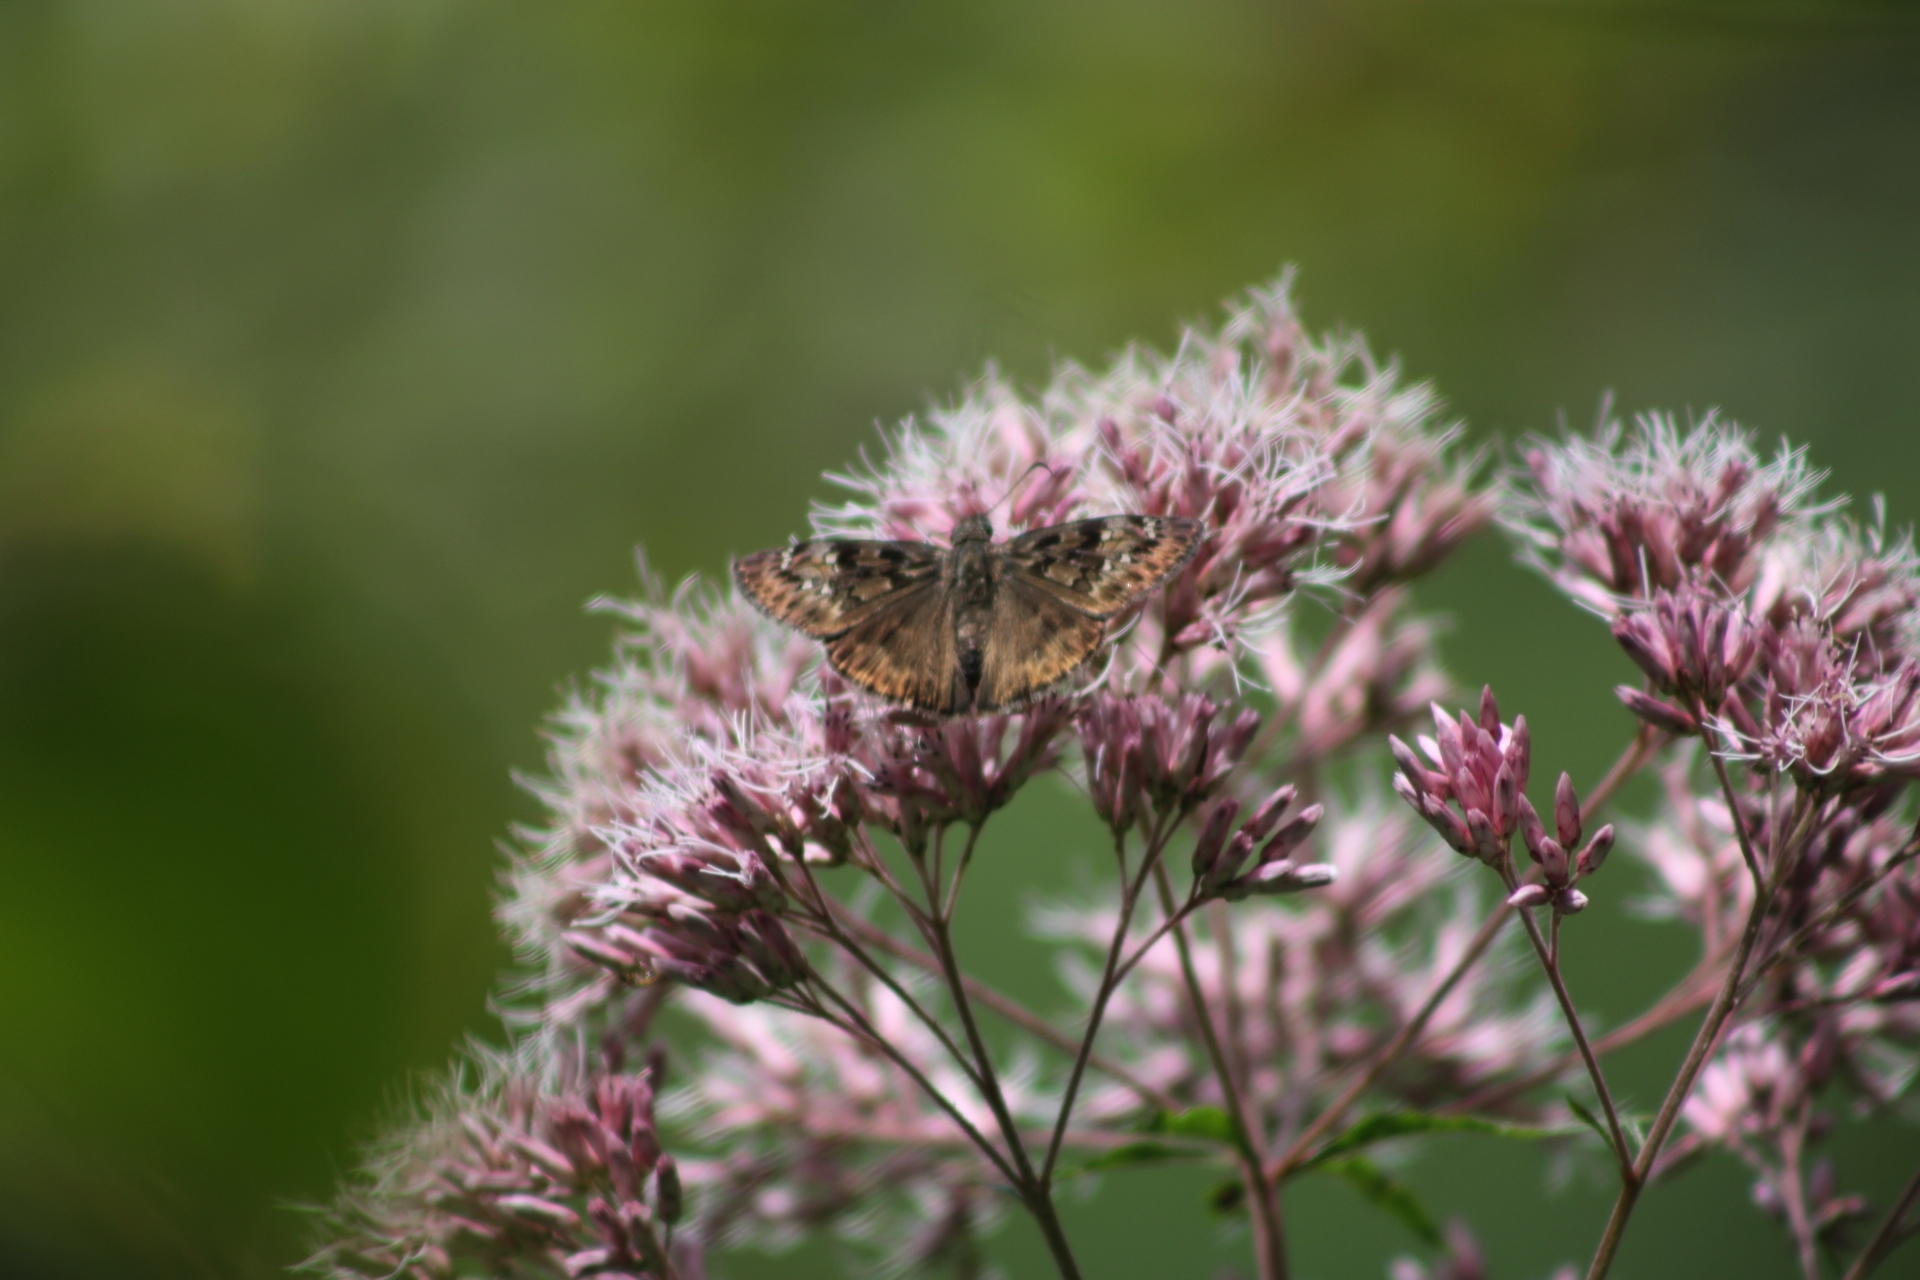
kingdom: Animalia
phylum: Arthropoda
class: Insecta
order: Lepidoptera
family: Hesperiidae
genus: Erynnis
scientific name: Erynnis horatius
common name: Horace's duskywing
